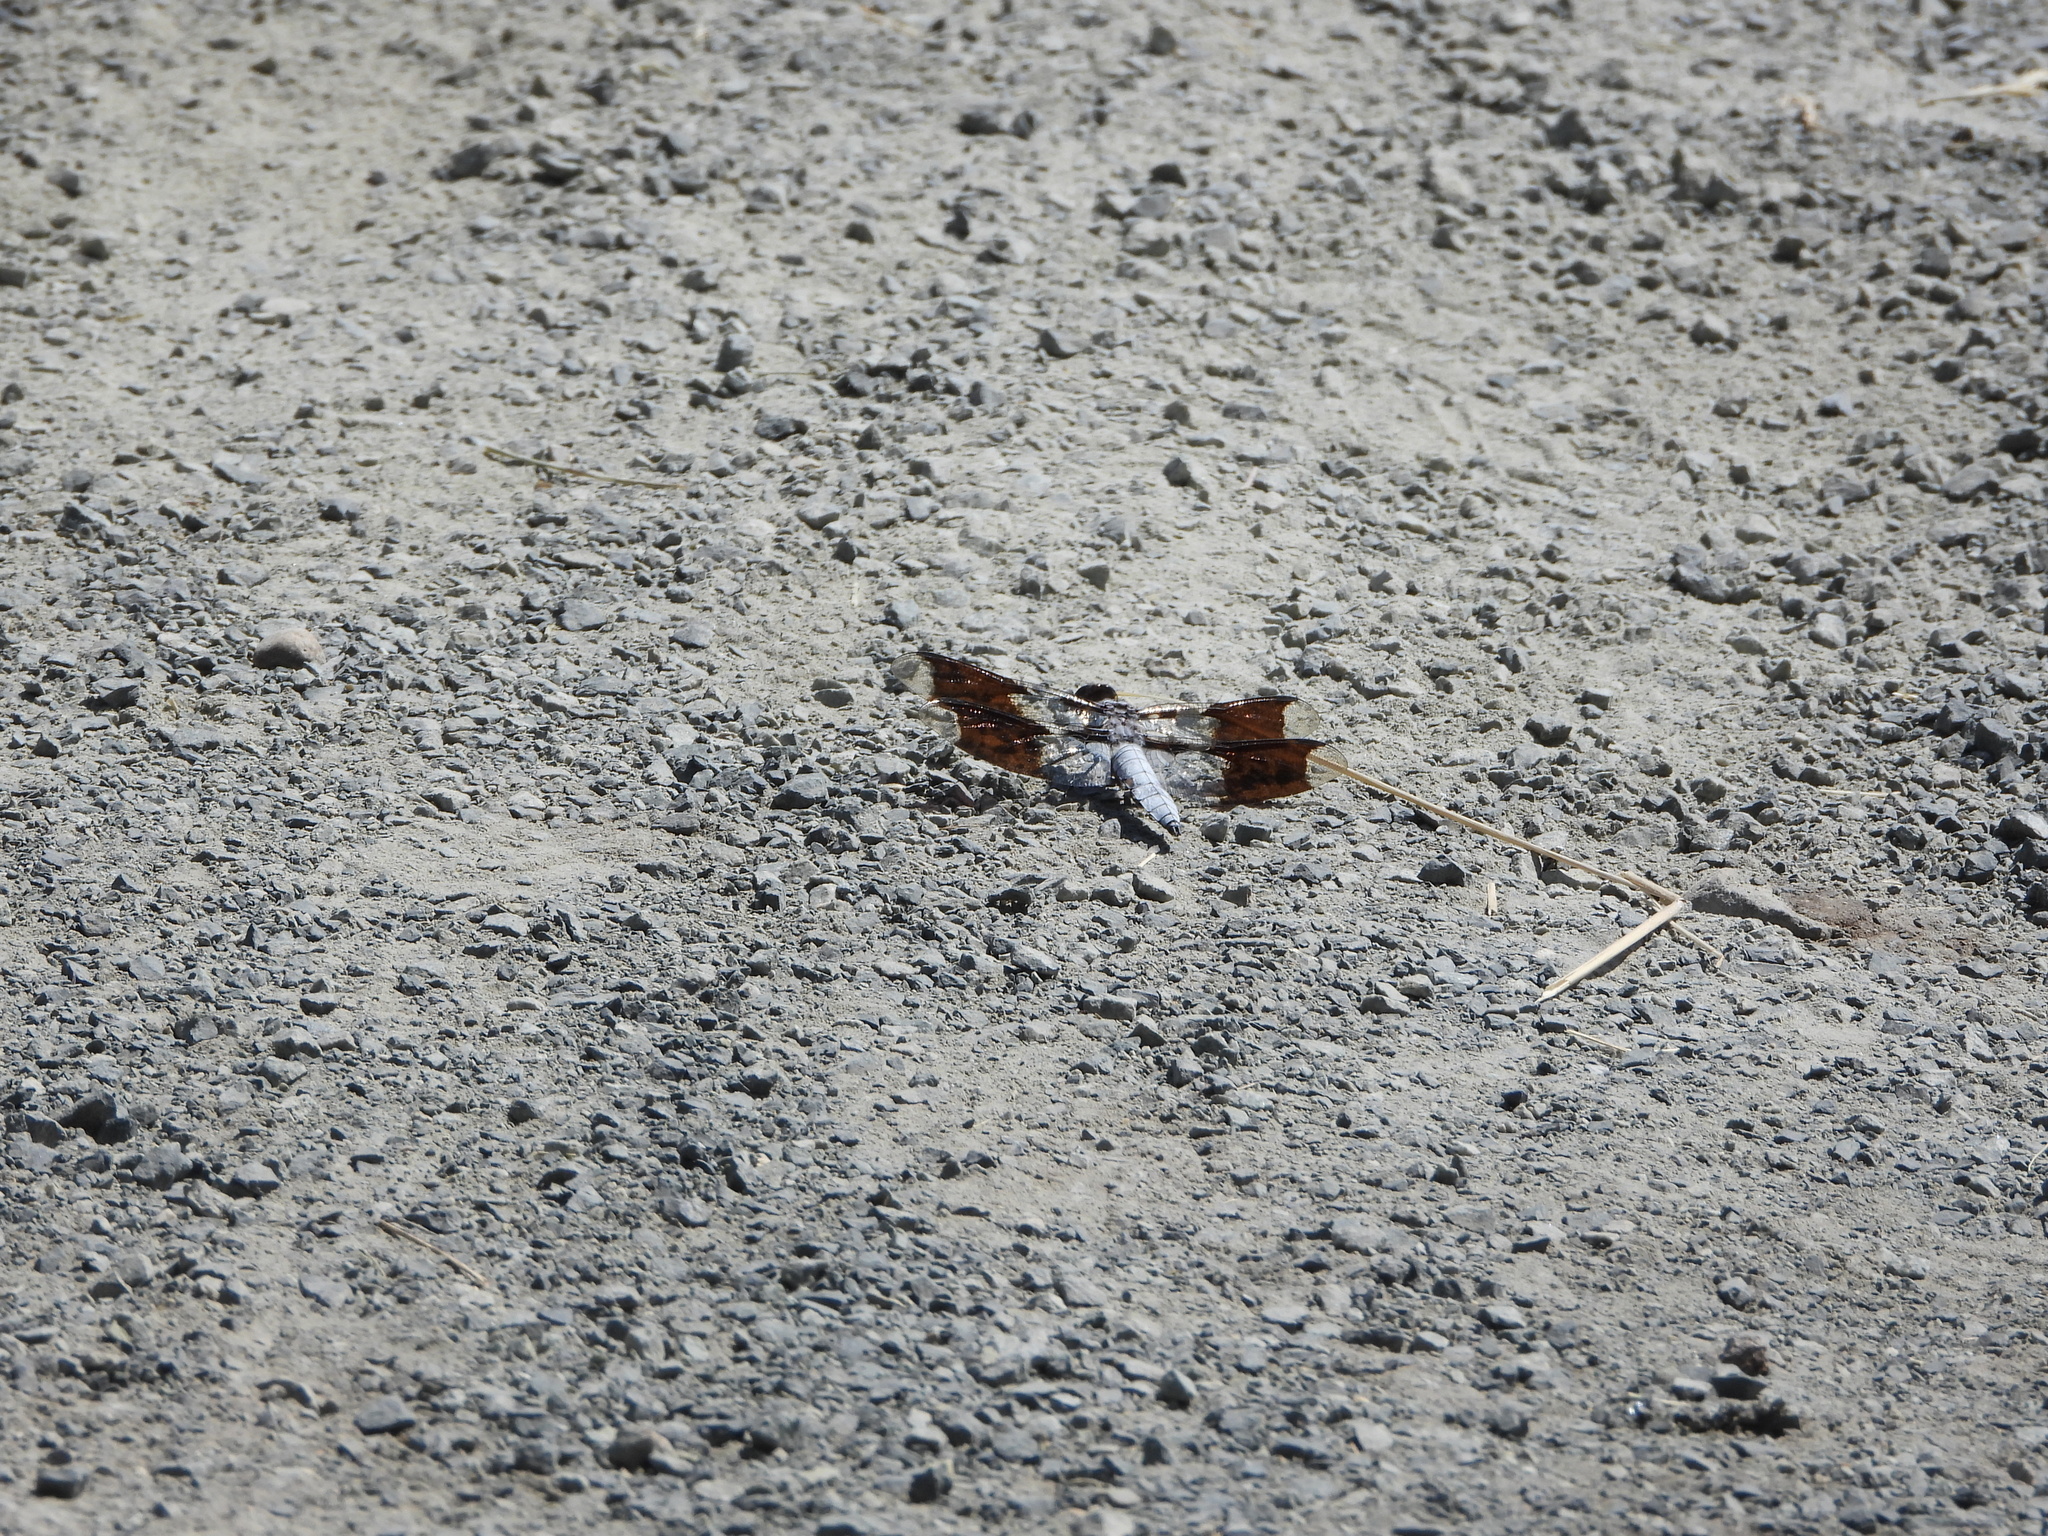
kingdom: Animalia
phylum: Arthropoda
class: Insecta
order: Odonata
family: Libellulidae
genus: Plathemis
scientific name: Plathemis lydia
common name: Common whitetail
